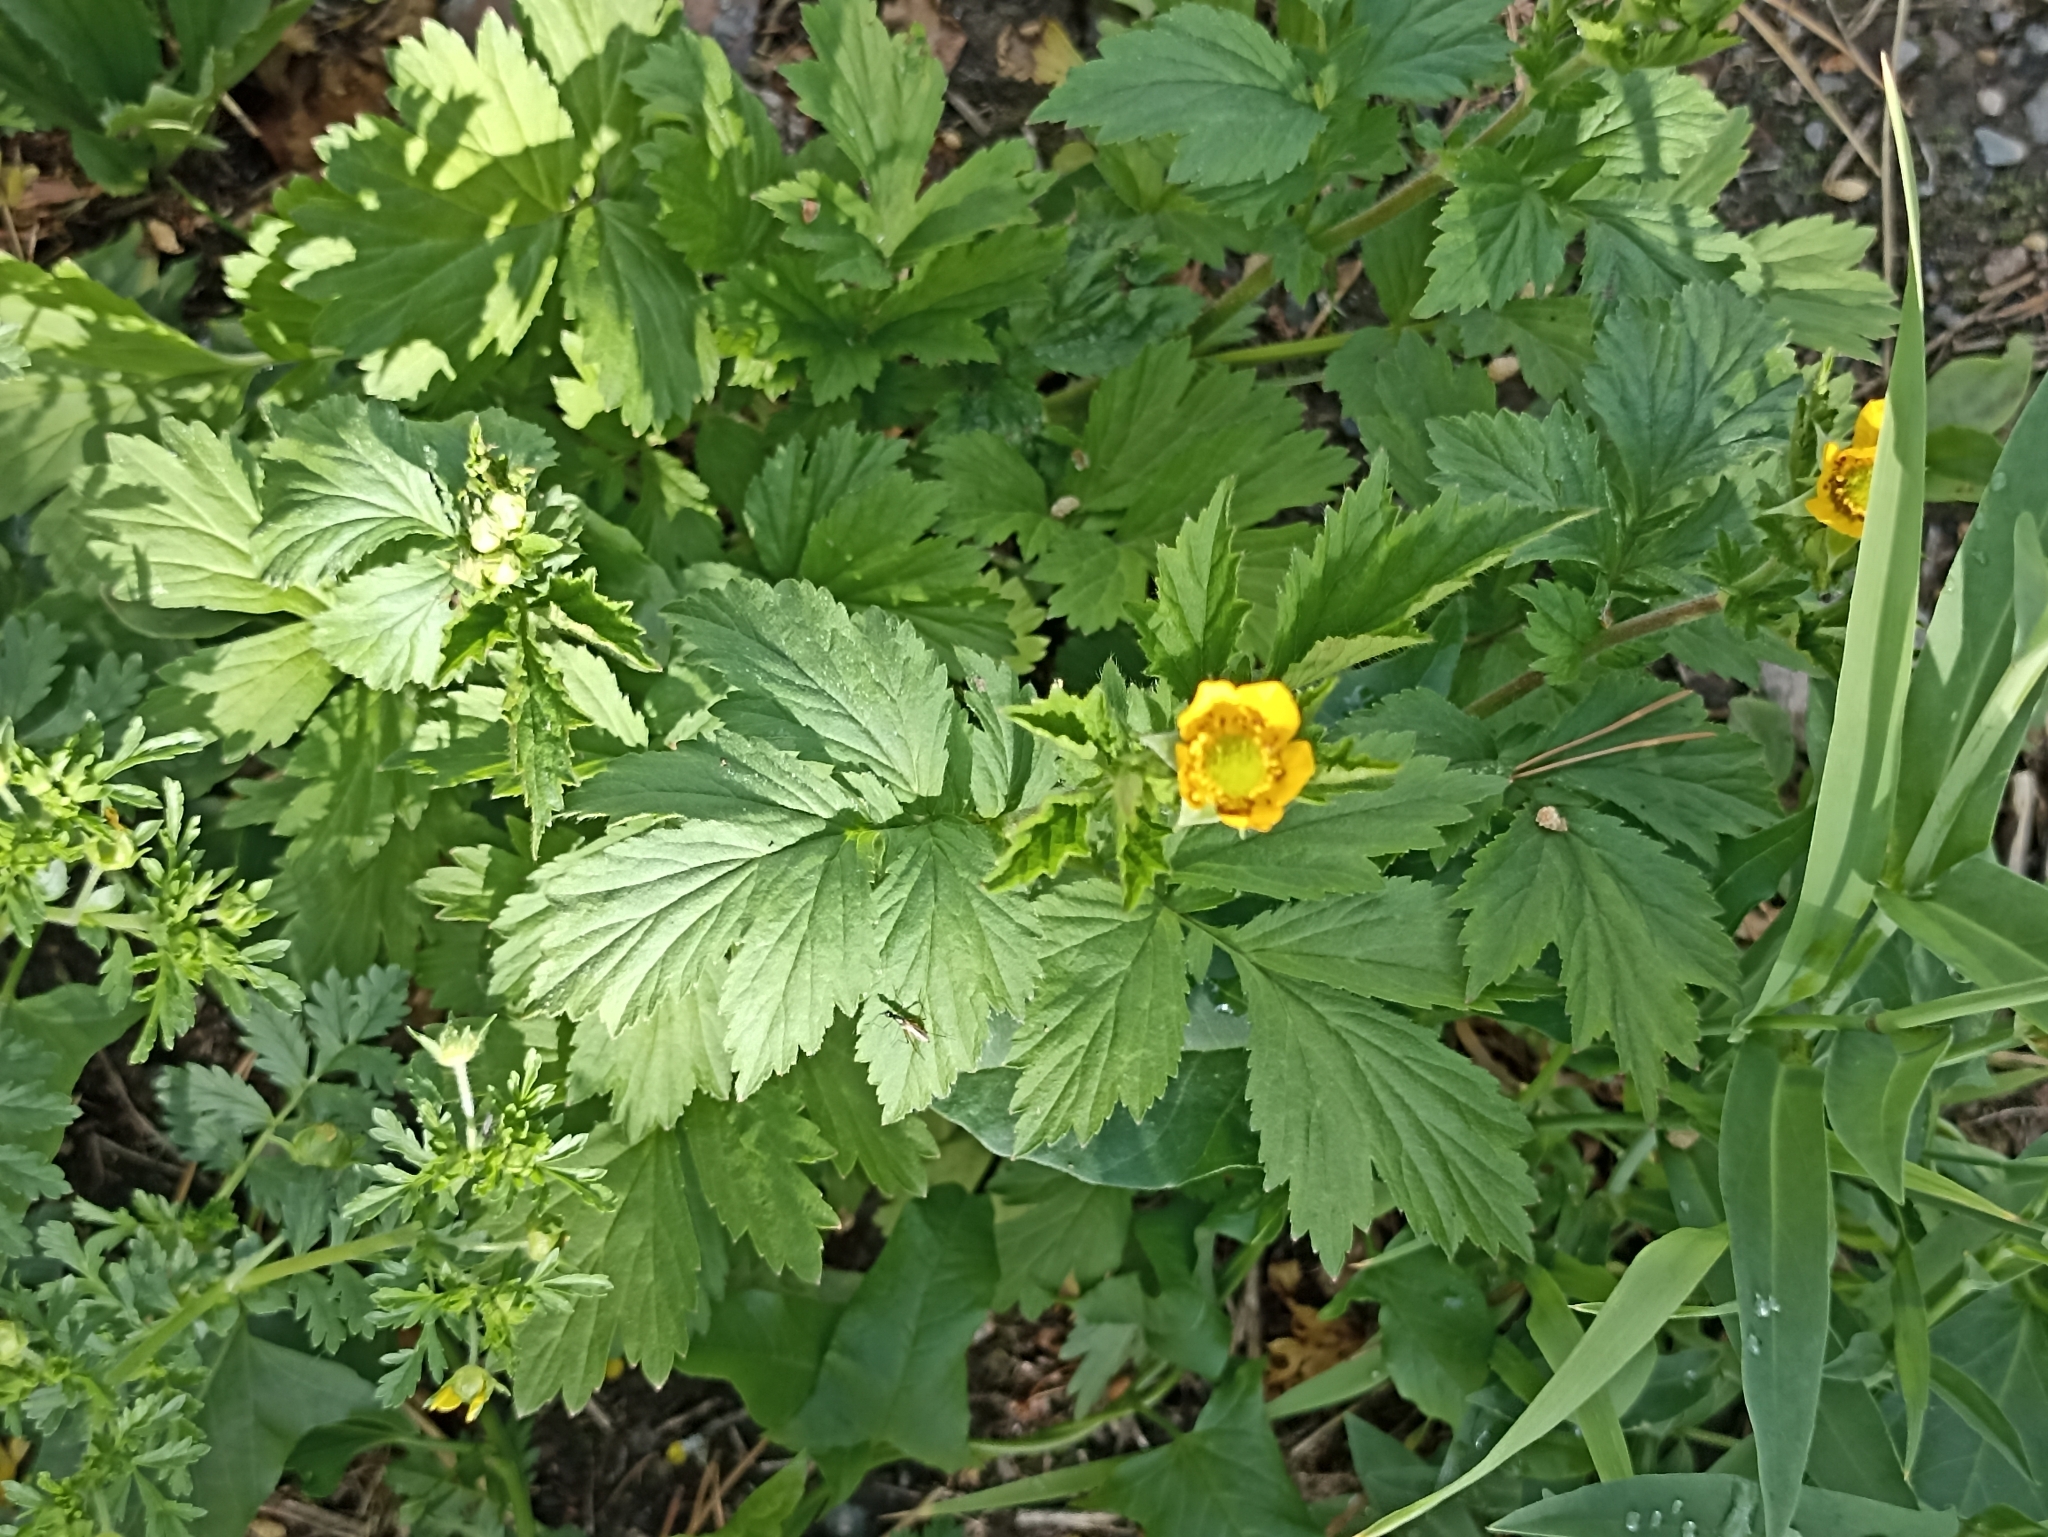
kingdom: Plantae
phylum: Tracheophyta
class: Magnoliopsida
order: Rosales
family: Rosaceae
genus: Geum
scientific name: Geum aleppicum
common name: Yellow avens
